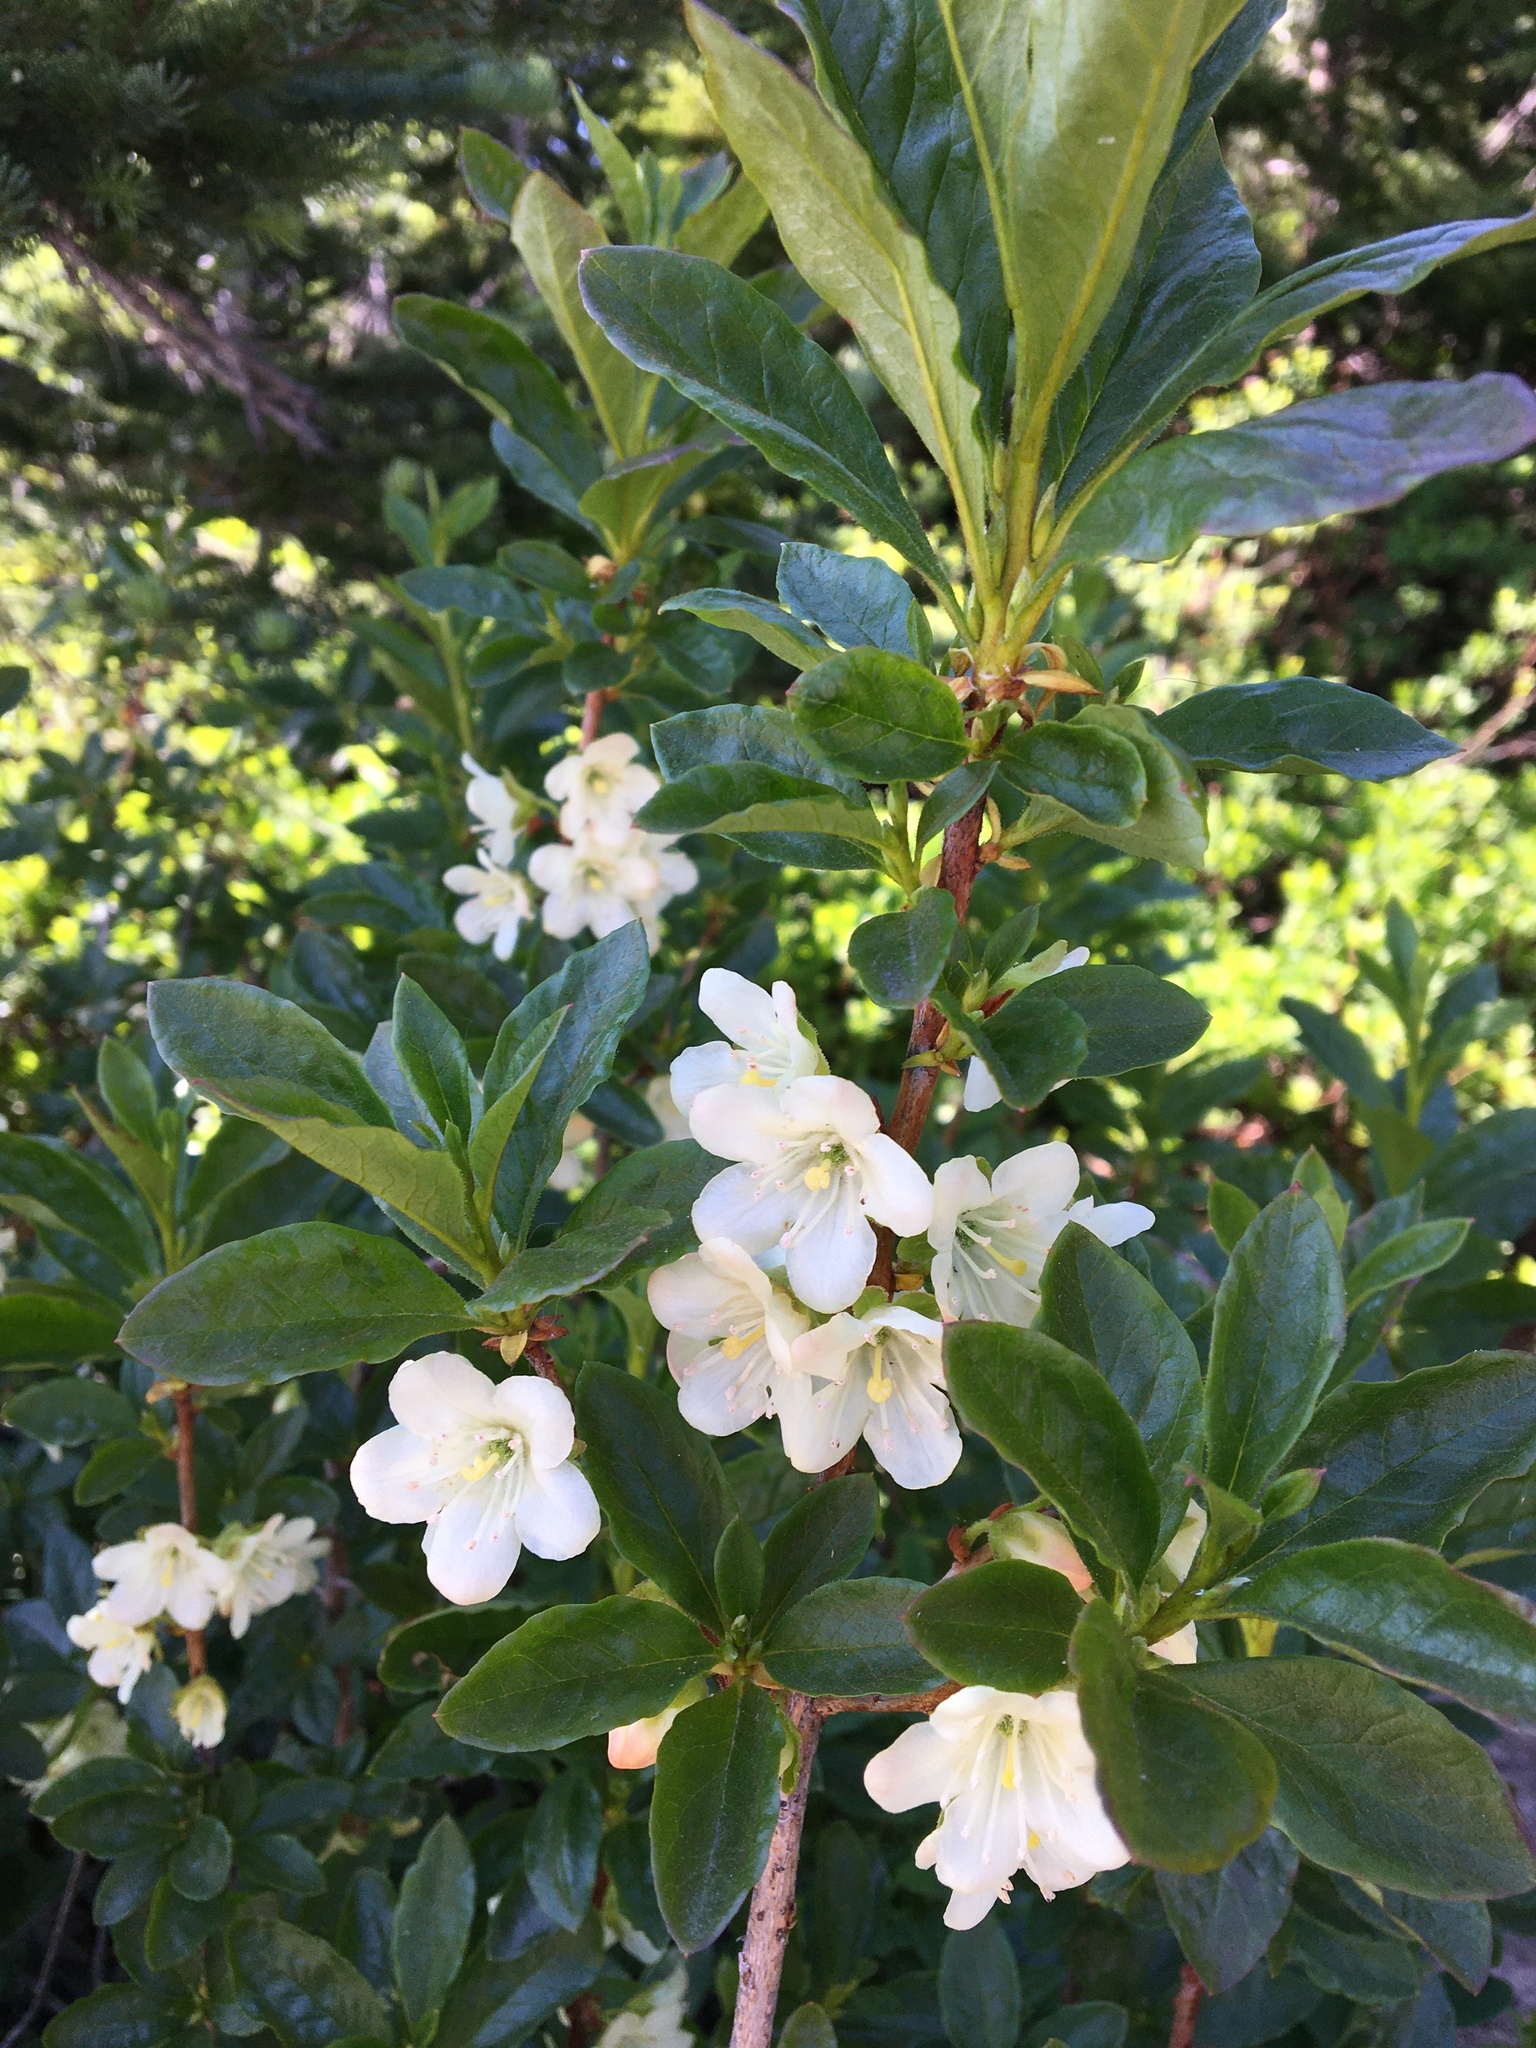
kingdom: Plantae
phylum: Tracheophyta
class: Magnoliopsida
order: Ericales
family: Ericaceae
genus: Rhododendron
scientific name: Rhododendron albiflorum
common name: White rhododendron
